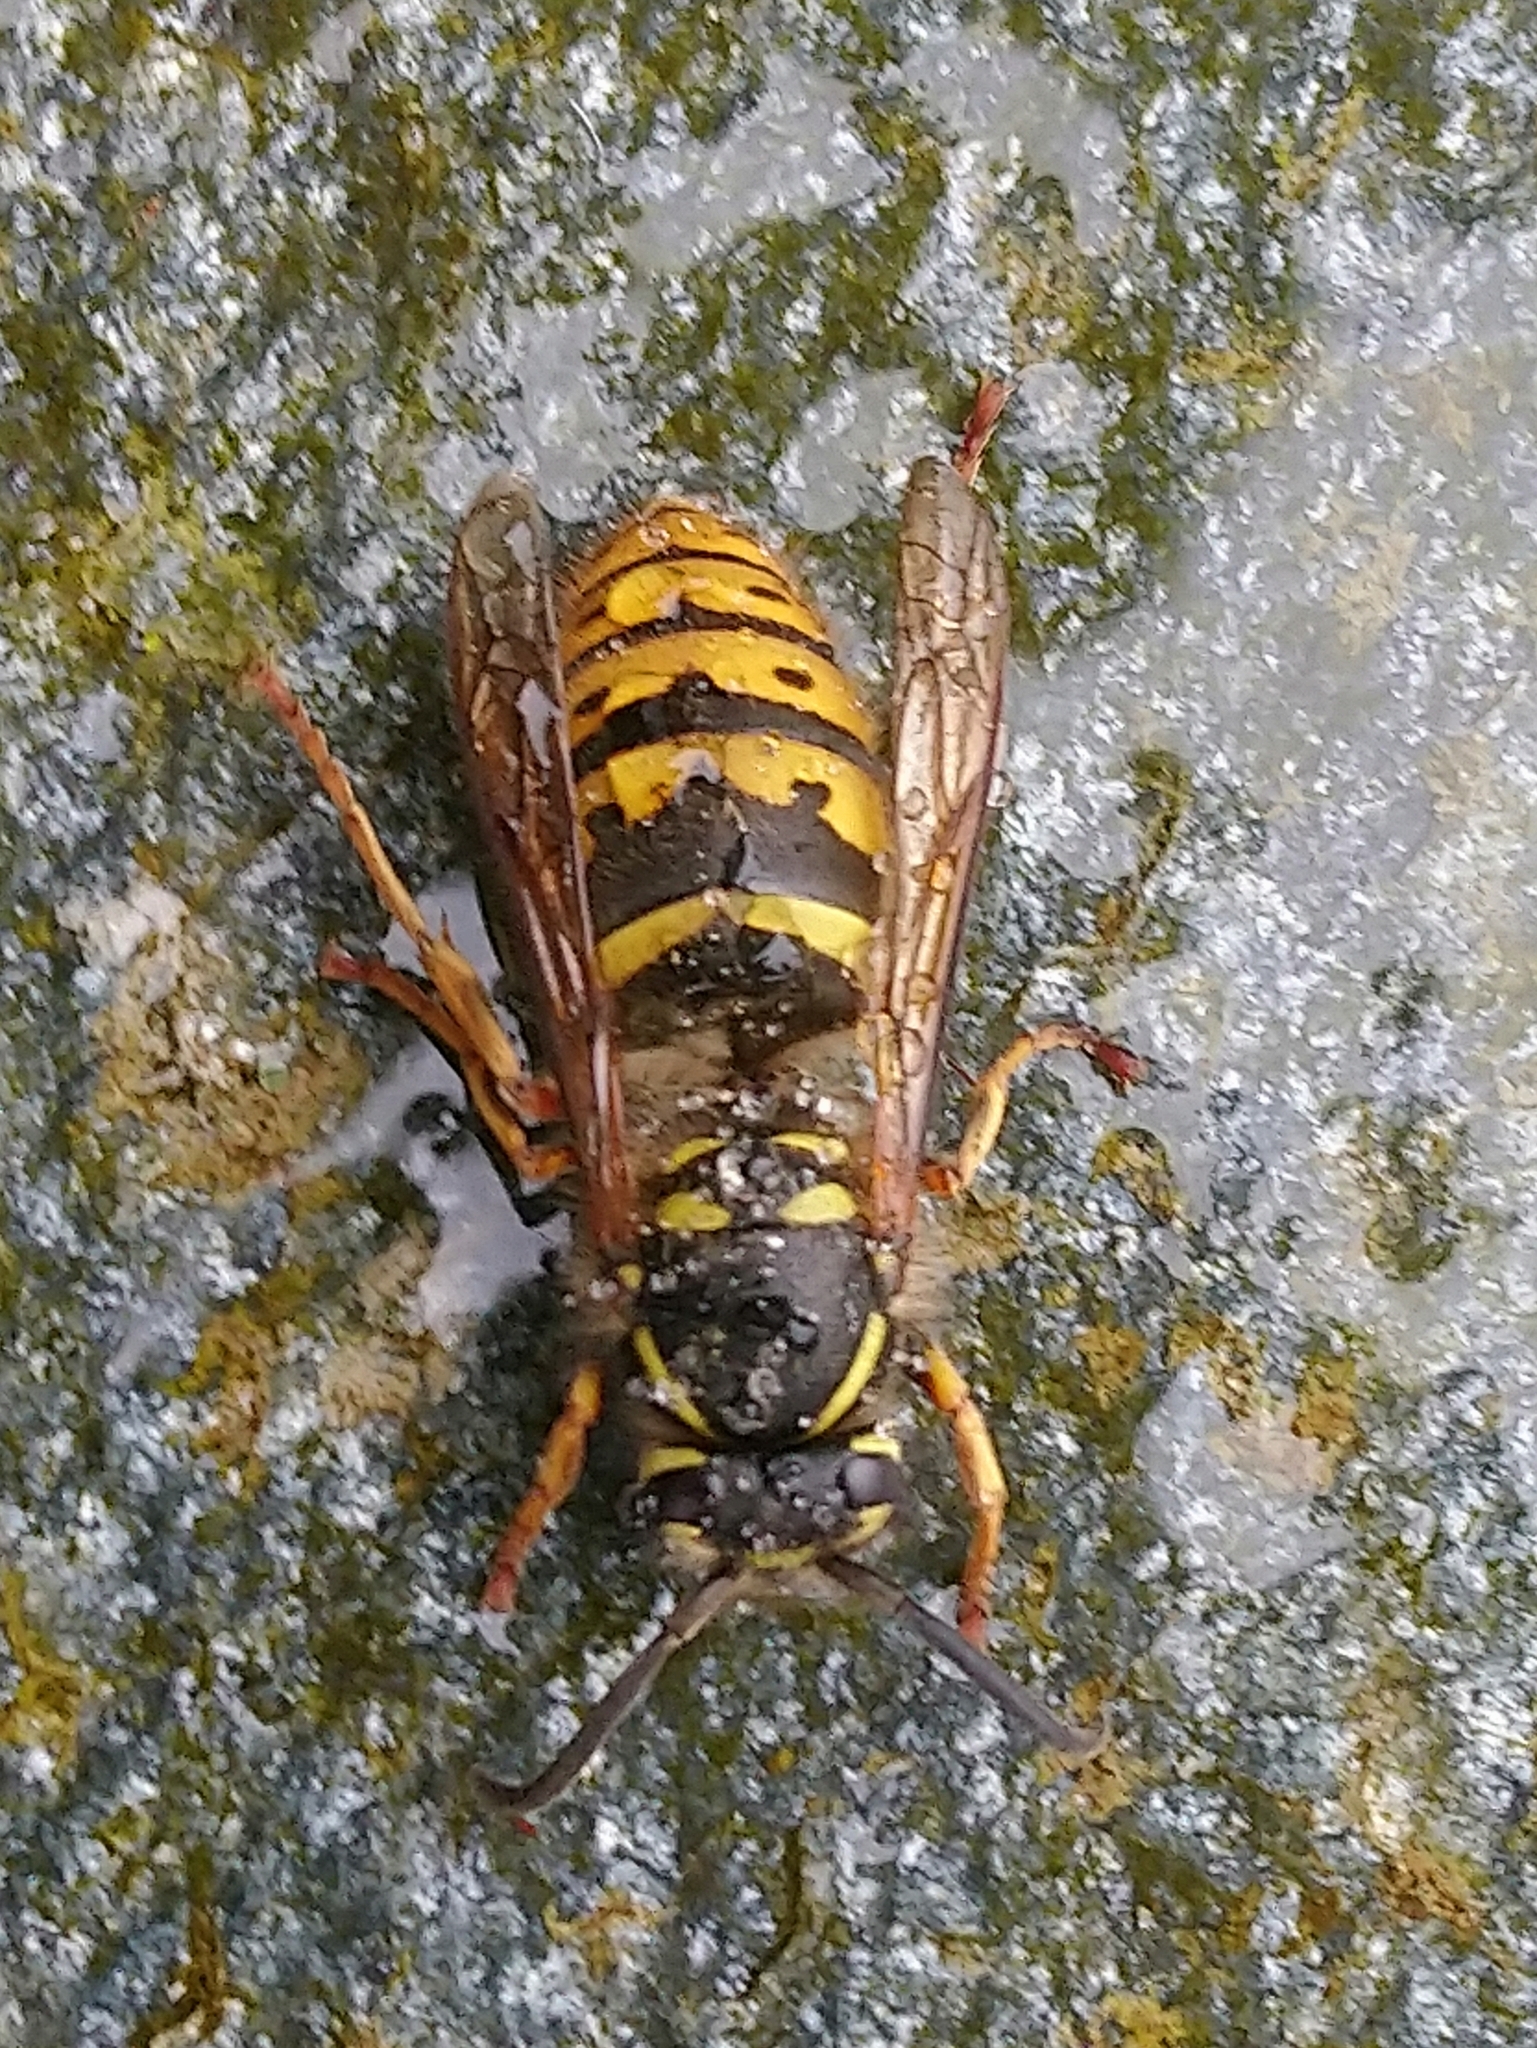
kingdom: Animalia
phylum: Arthropoda
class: Insecta
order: Hymenoptera
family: Vespidae
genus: Vespula
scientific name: Vespula vulgaris
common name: Common wasp
